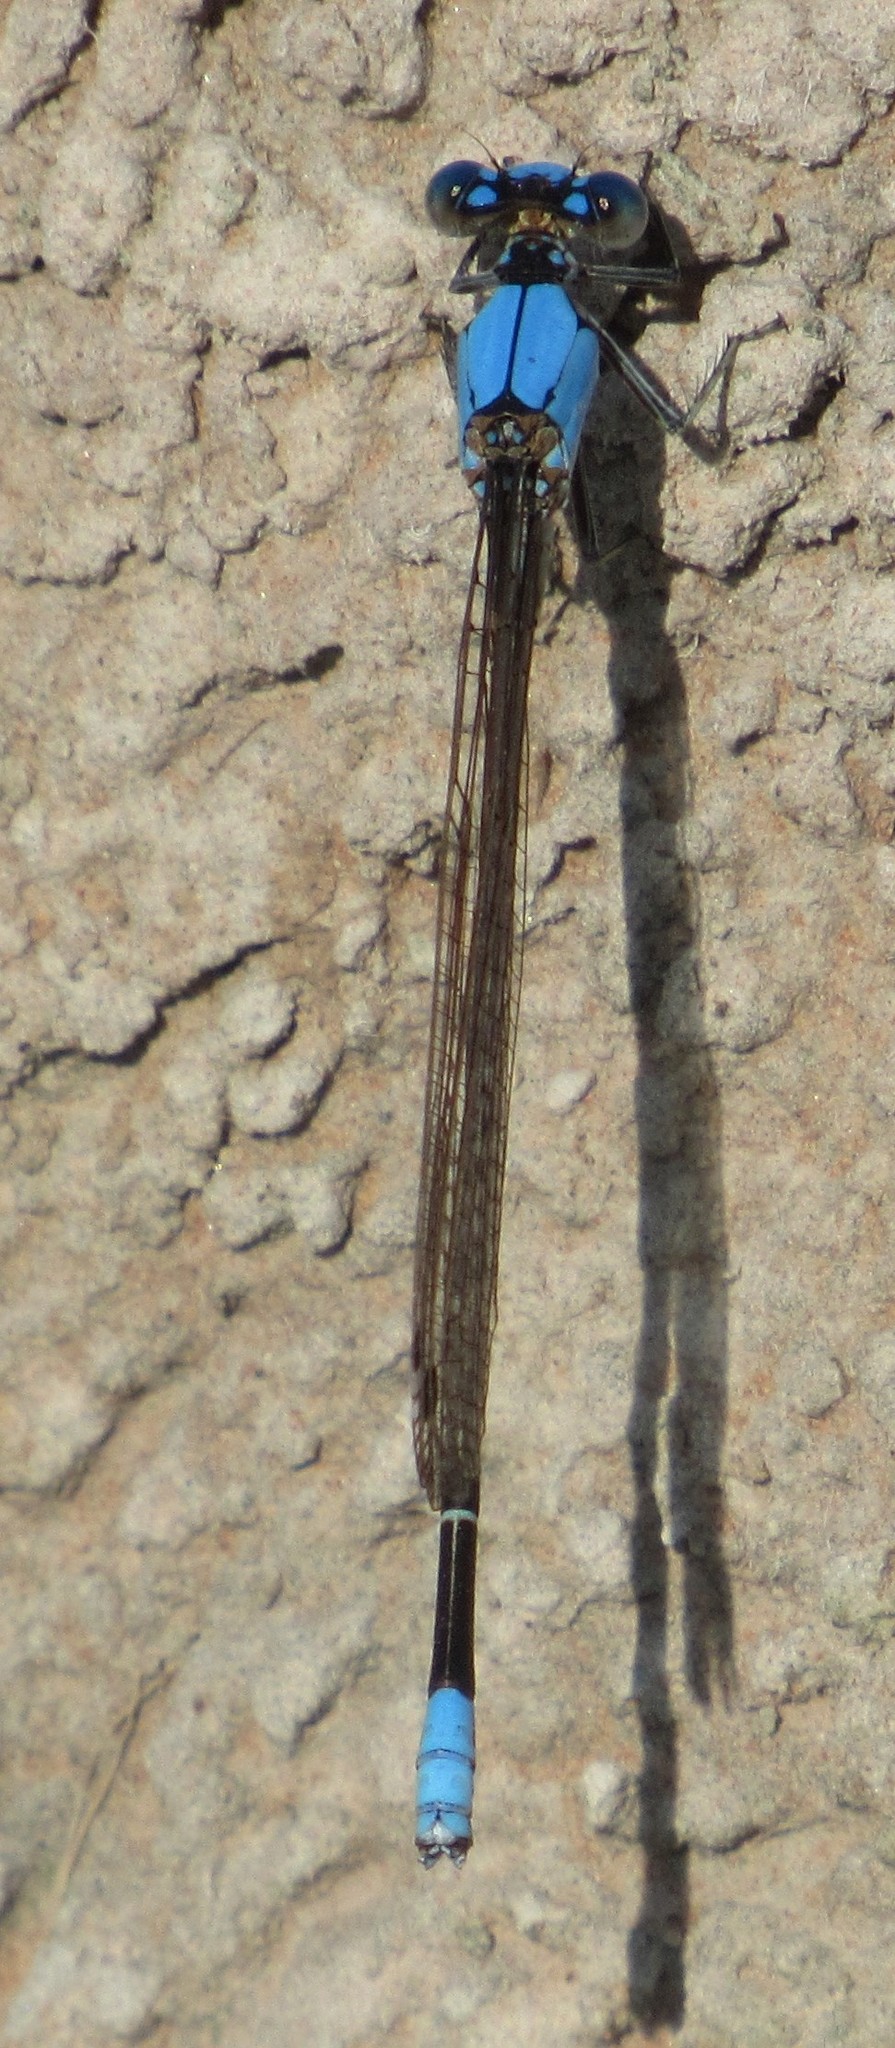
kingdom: Animalia
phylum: Arthropoda
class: Insecta
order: Odonata
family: Coenagrionidae
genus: Argia
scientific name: Argia apicalis
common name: Blue-fronted dancer
